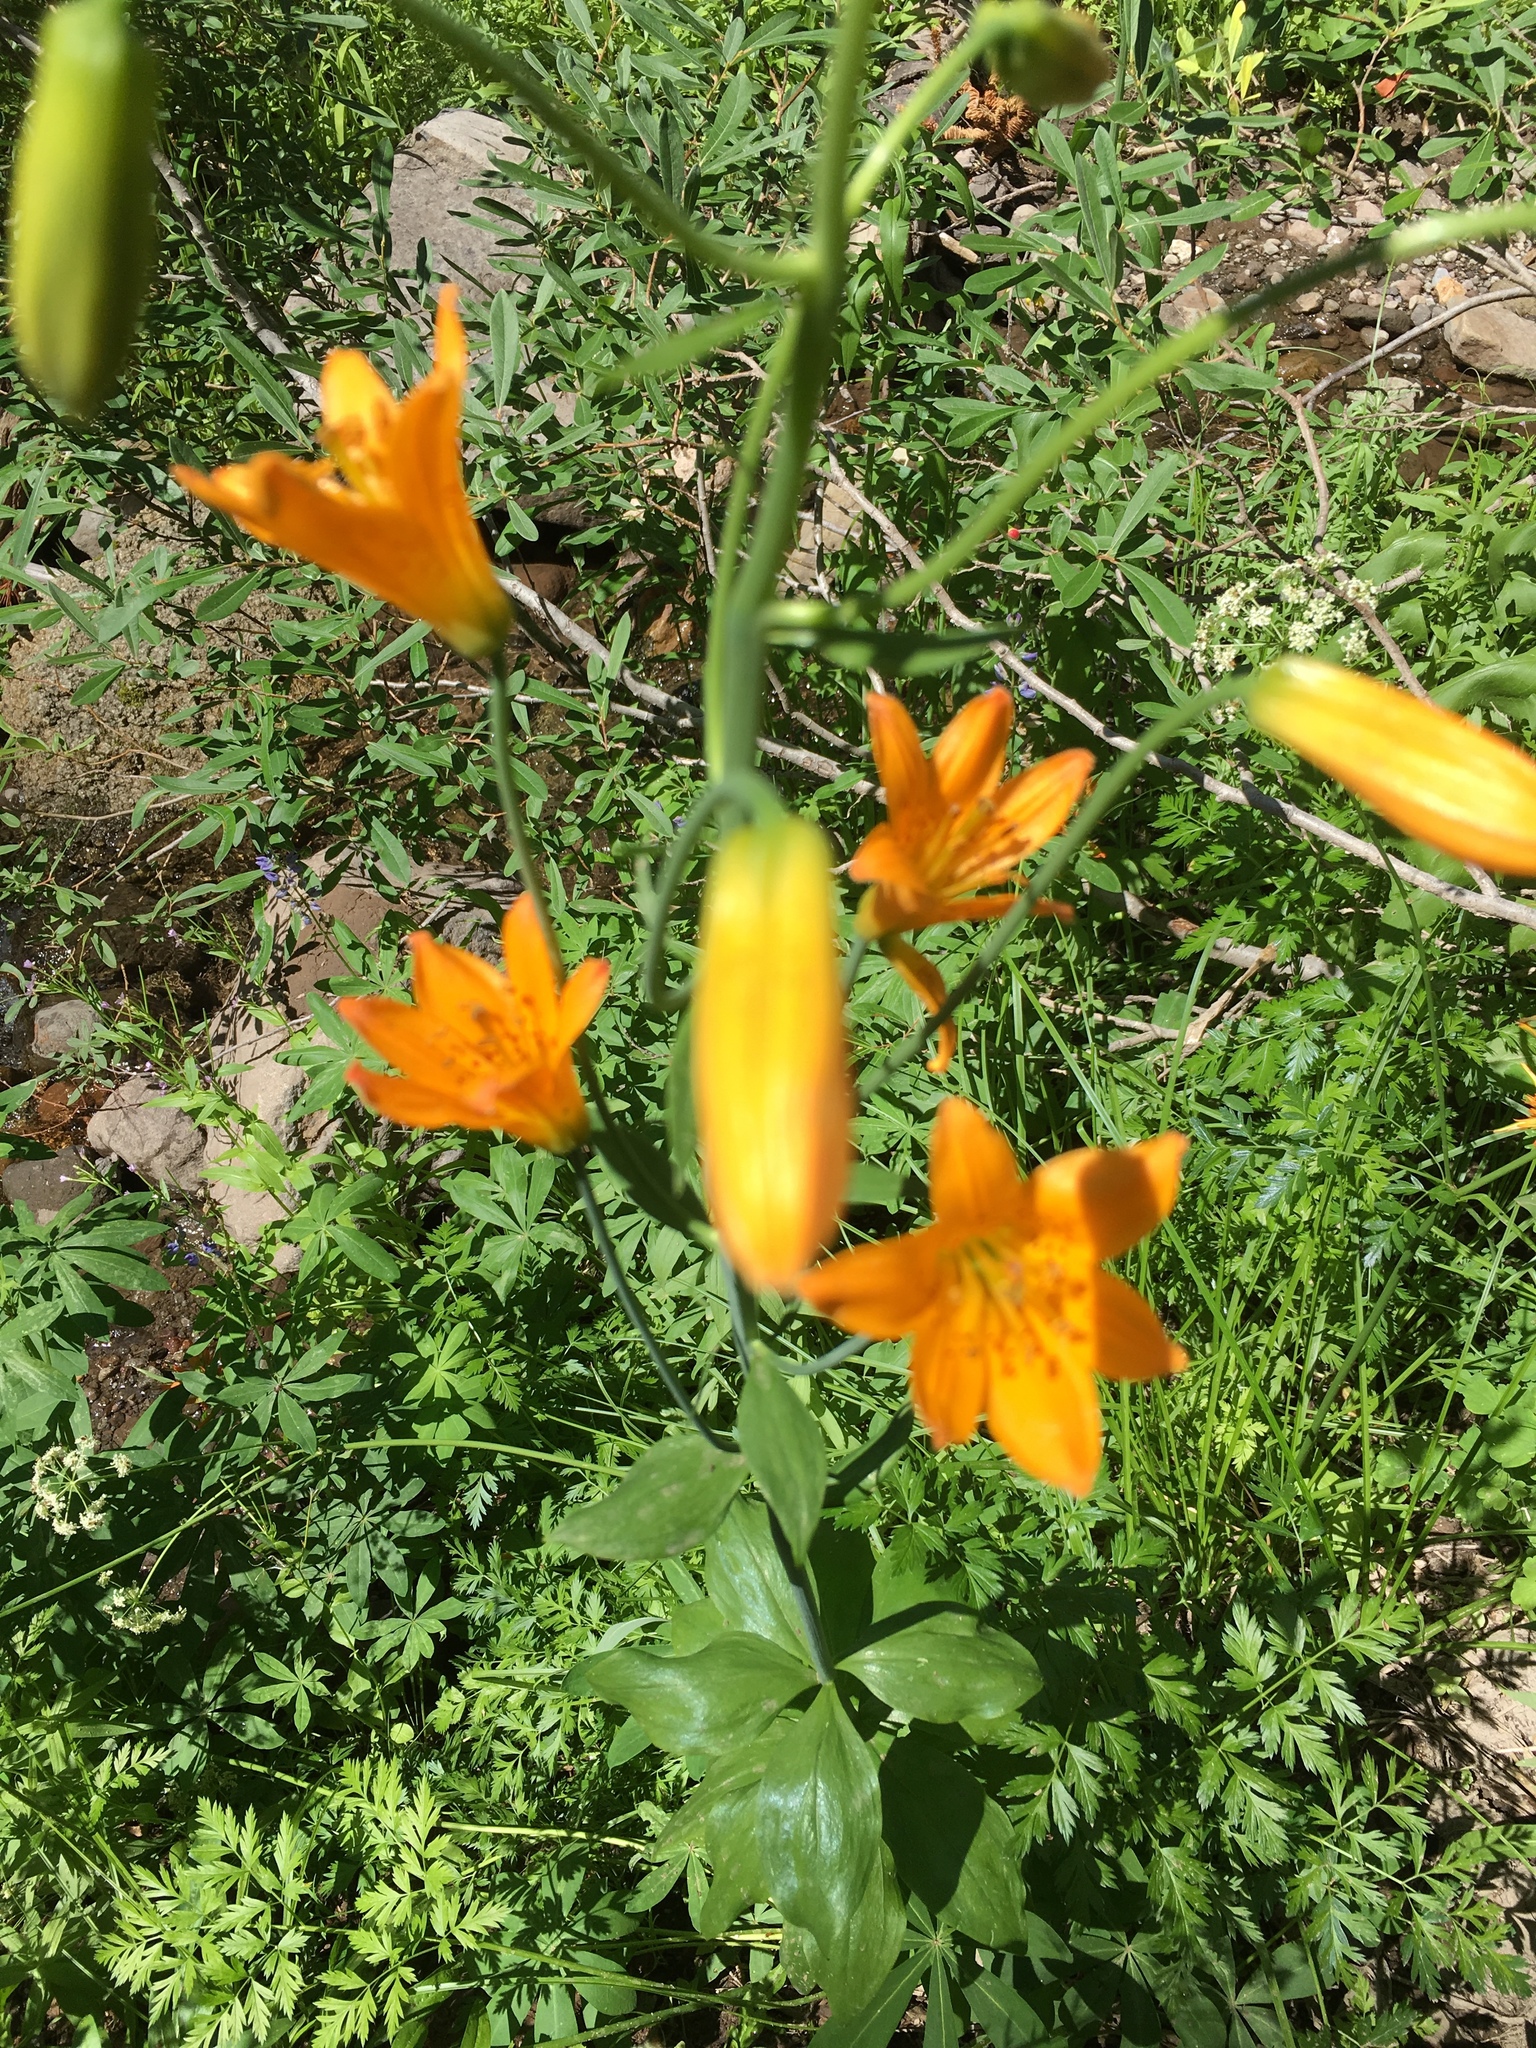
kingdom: Plantae
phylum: Tracheophyta
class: Liliopsida
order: Liliales
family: Liliaceae
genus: Lilium
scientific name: Lilium parvum
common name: Alpine lily
